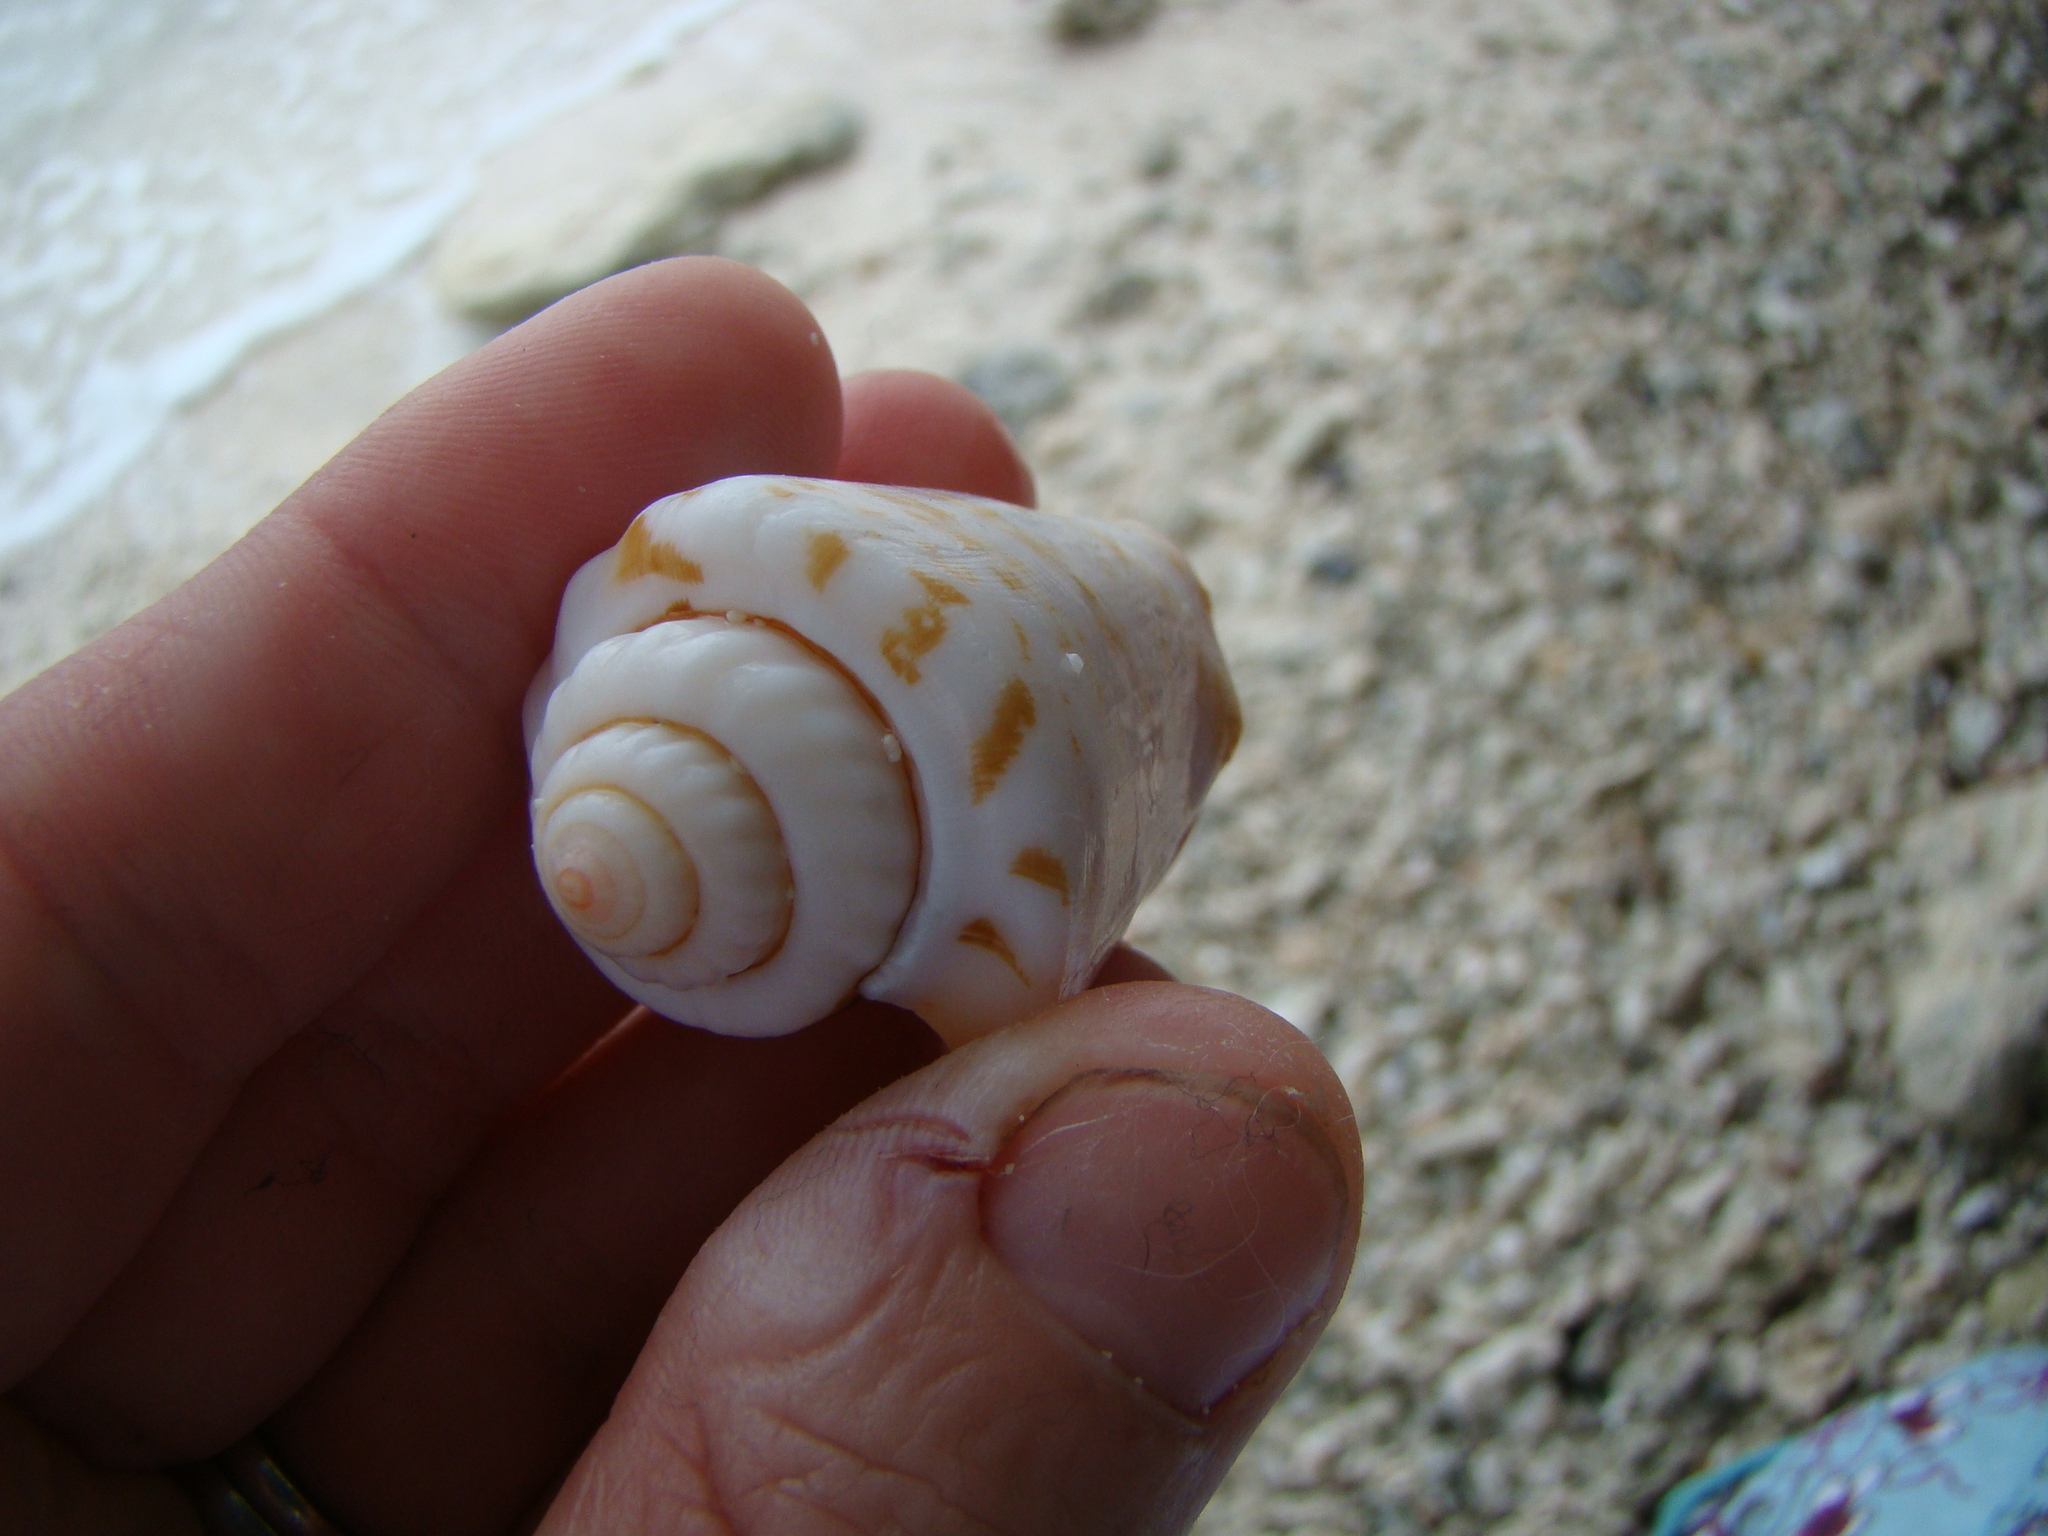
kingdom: Animalia
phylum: Mollusca
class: Gastropoda
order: Littorinimorpha
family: Strombidae
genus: Conomurex
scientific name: Conomurex luhuanus
